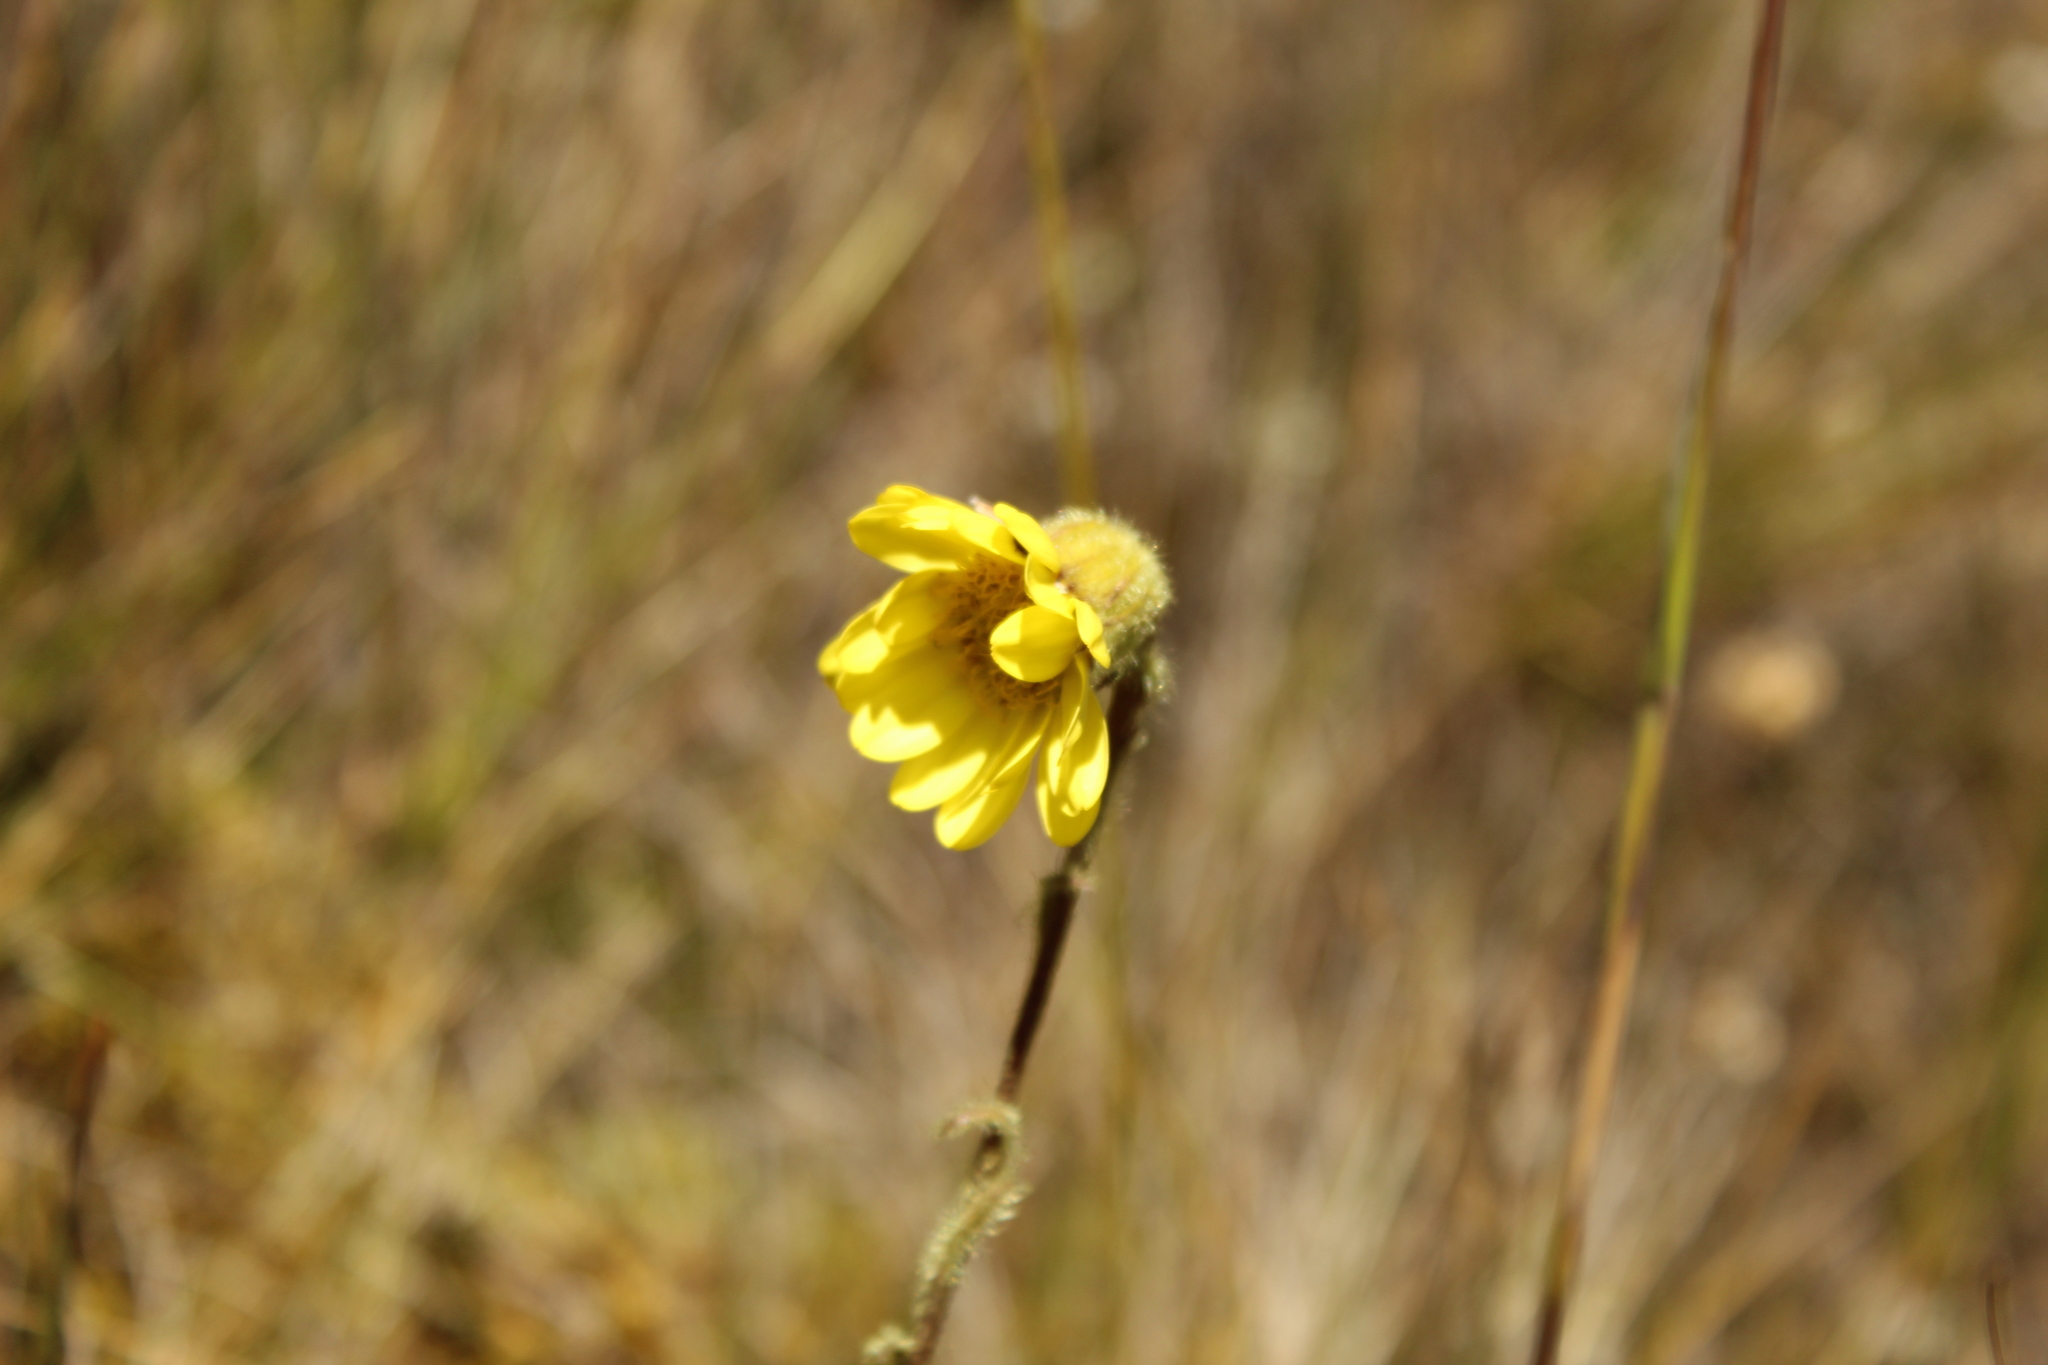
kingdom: Plantae
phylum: Tracheophyta
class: Magnoliopsida
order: Asterales
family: Asteraceae
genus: Senecio
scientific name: Senecio scapioides
